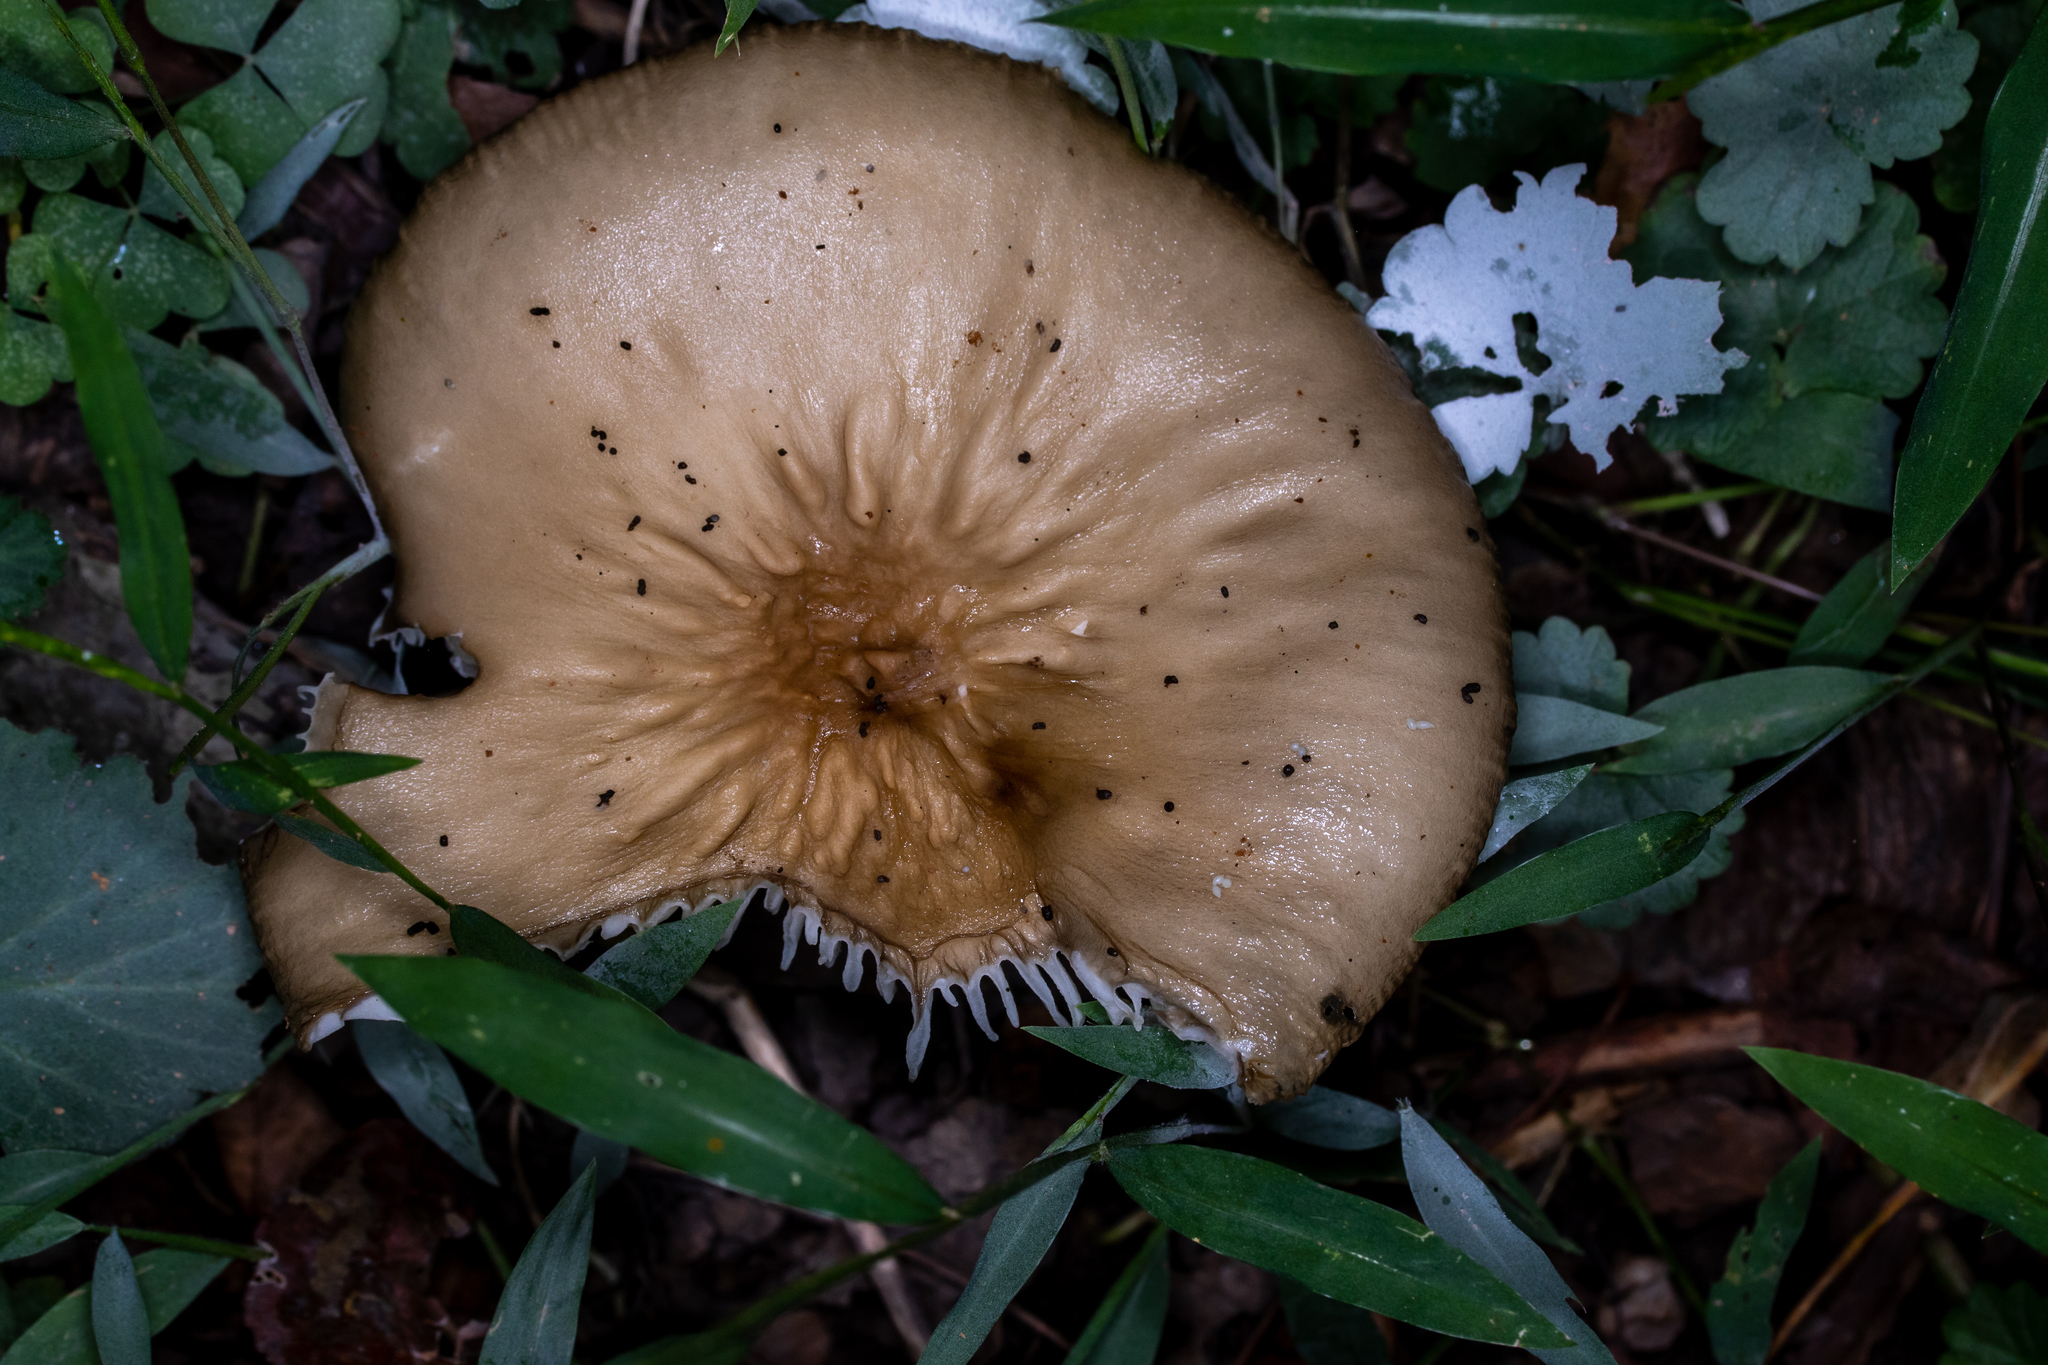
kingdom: Fungi
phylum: Basidiomycota
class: Agaricomycetes
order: Agaricales
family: Physalacriaceae
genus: Hymenopellis
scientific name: Hymenopellis furfuracea
